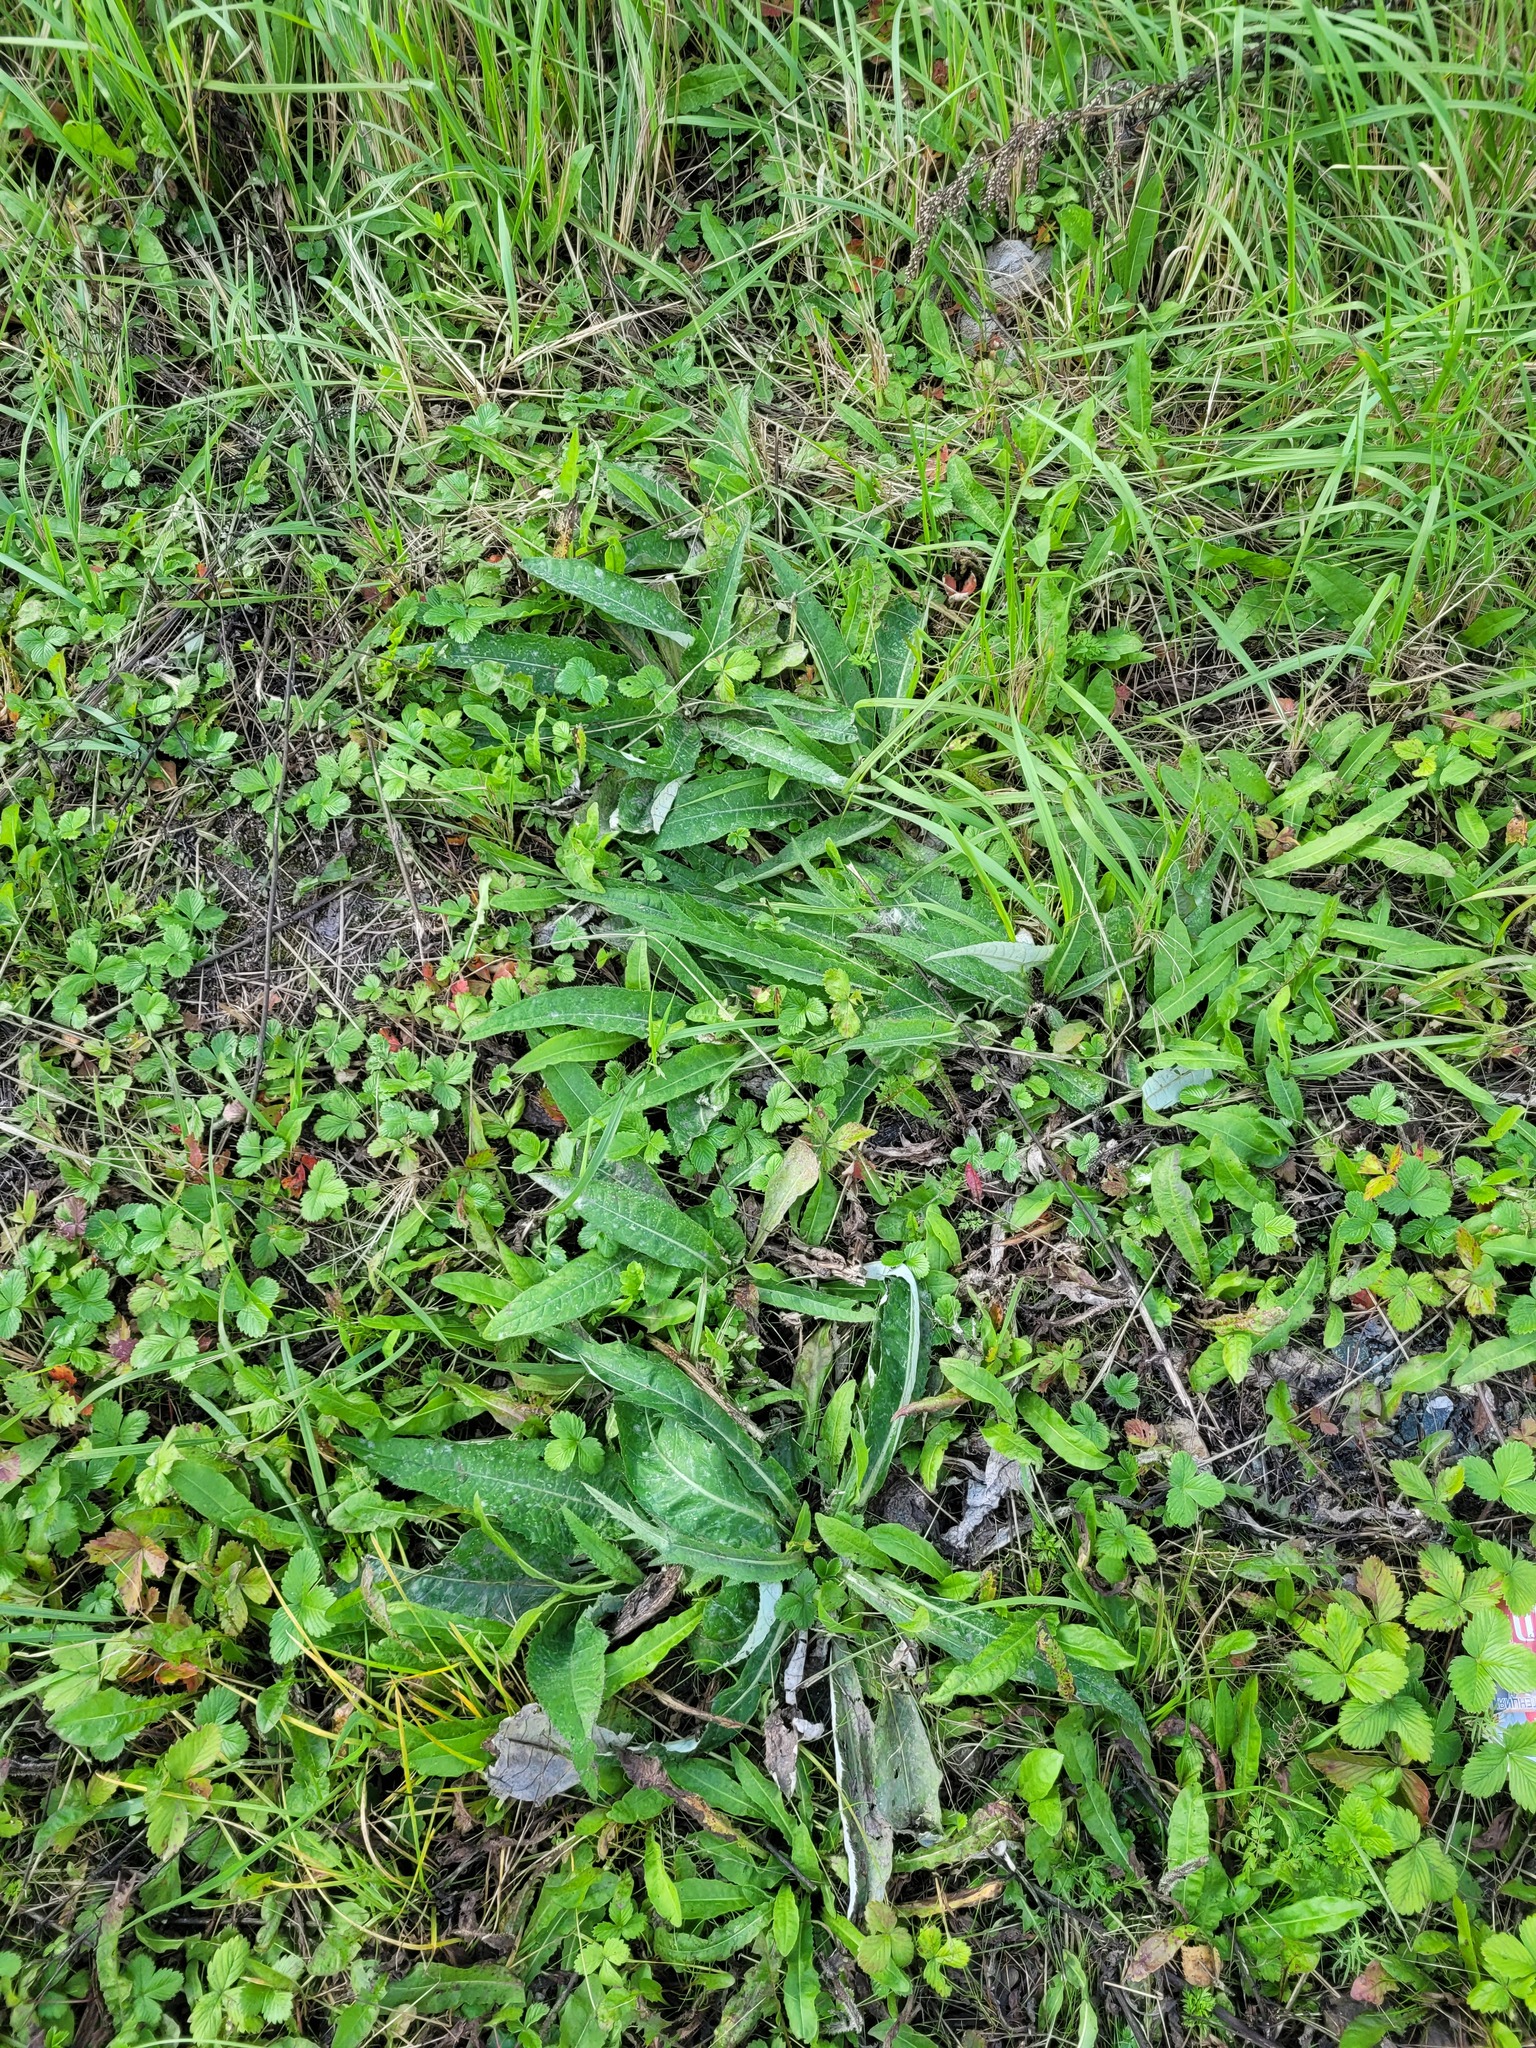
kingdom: Plantae
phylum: Tracheophyta
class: Magnoliopsida
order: Asterales
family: Asteraceae
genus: Cirsium
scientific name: Cirsium heterophyllum
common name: Melancholy thistle
